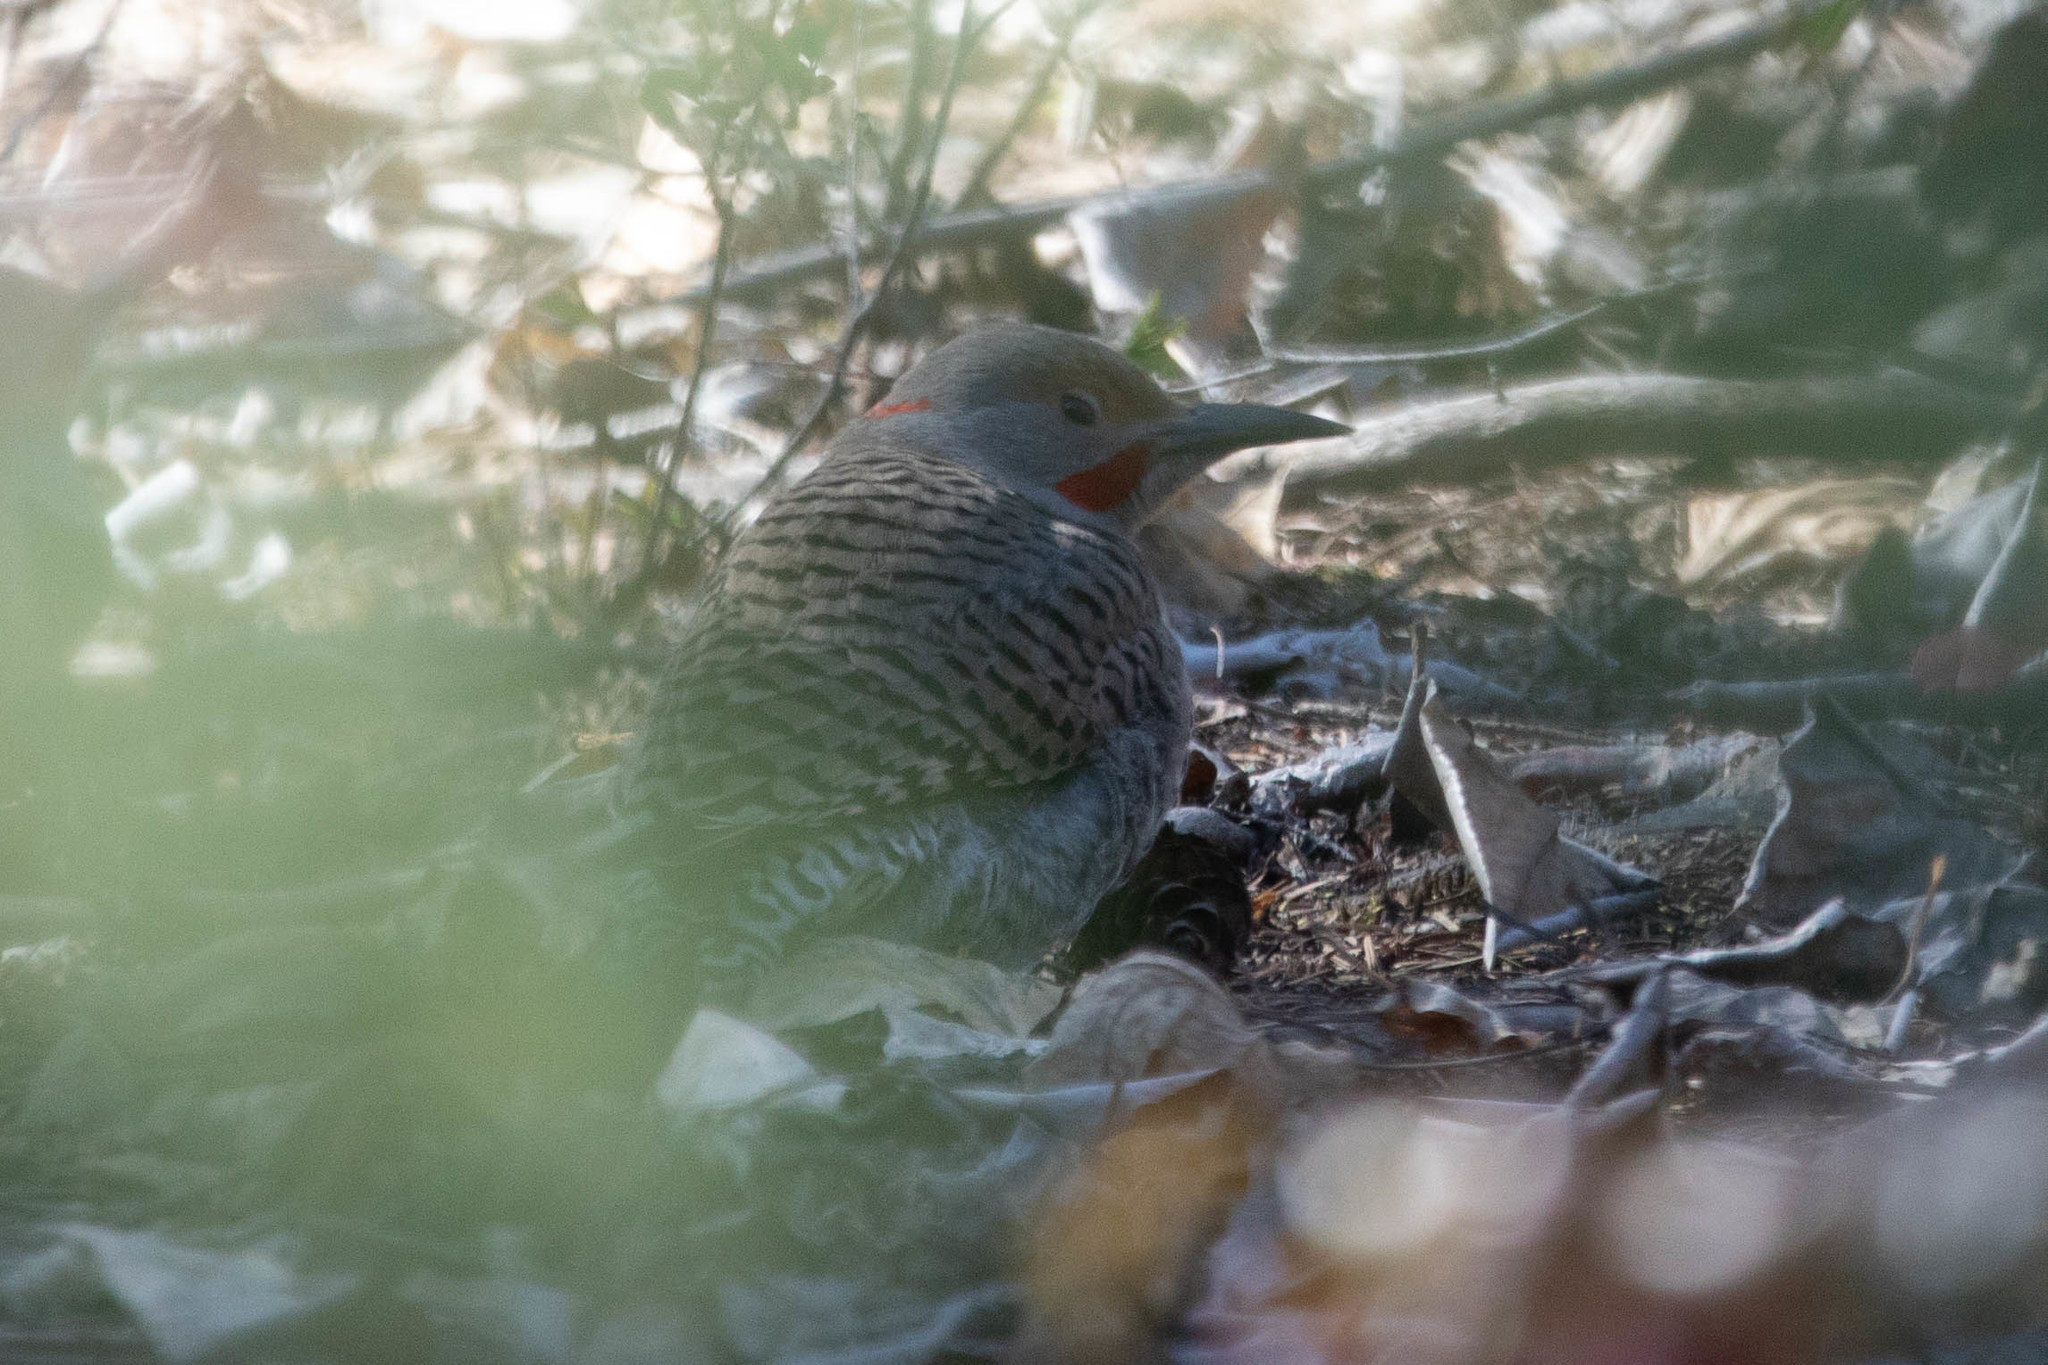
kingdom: Animalia
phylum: Chordata
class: Aves
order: Piciformes
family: Picidae
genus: Colaptes
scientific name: Colaptes
